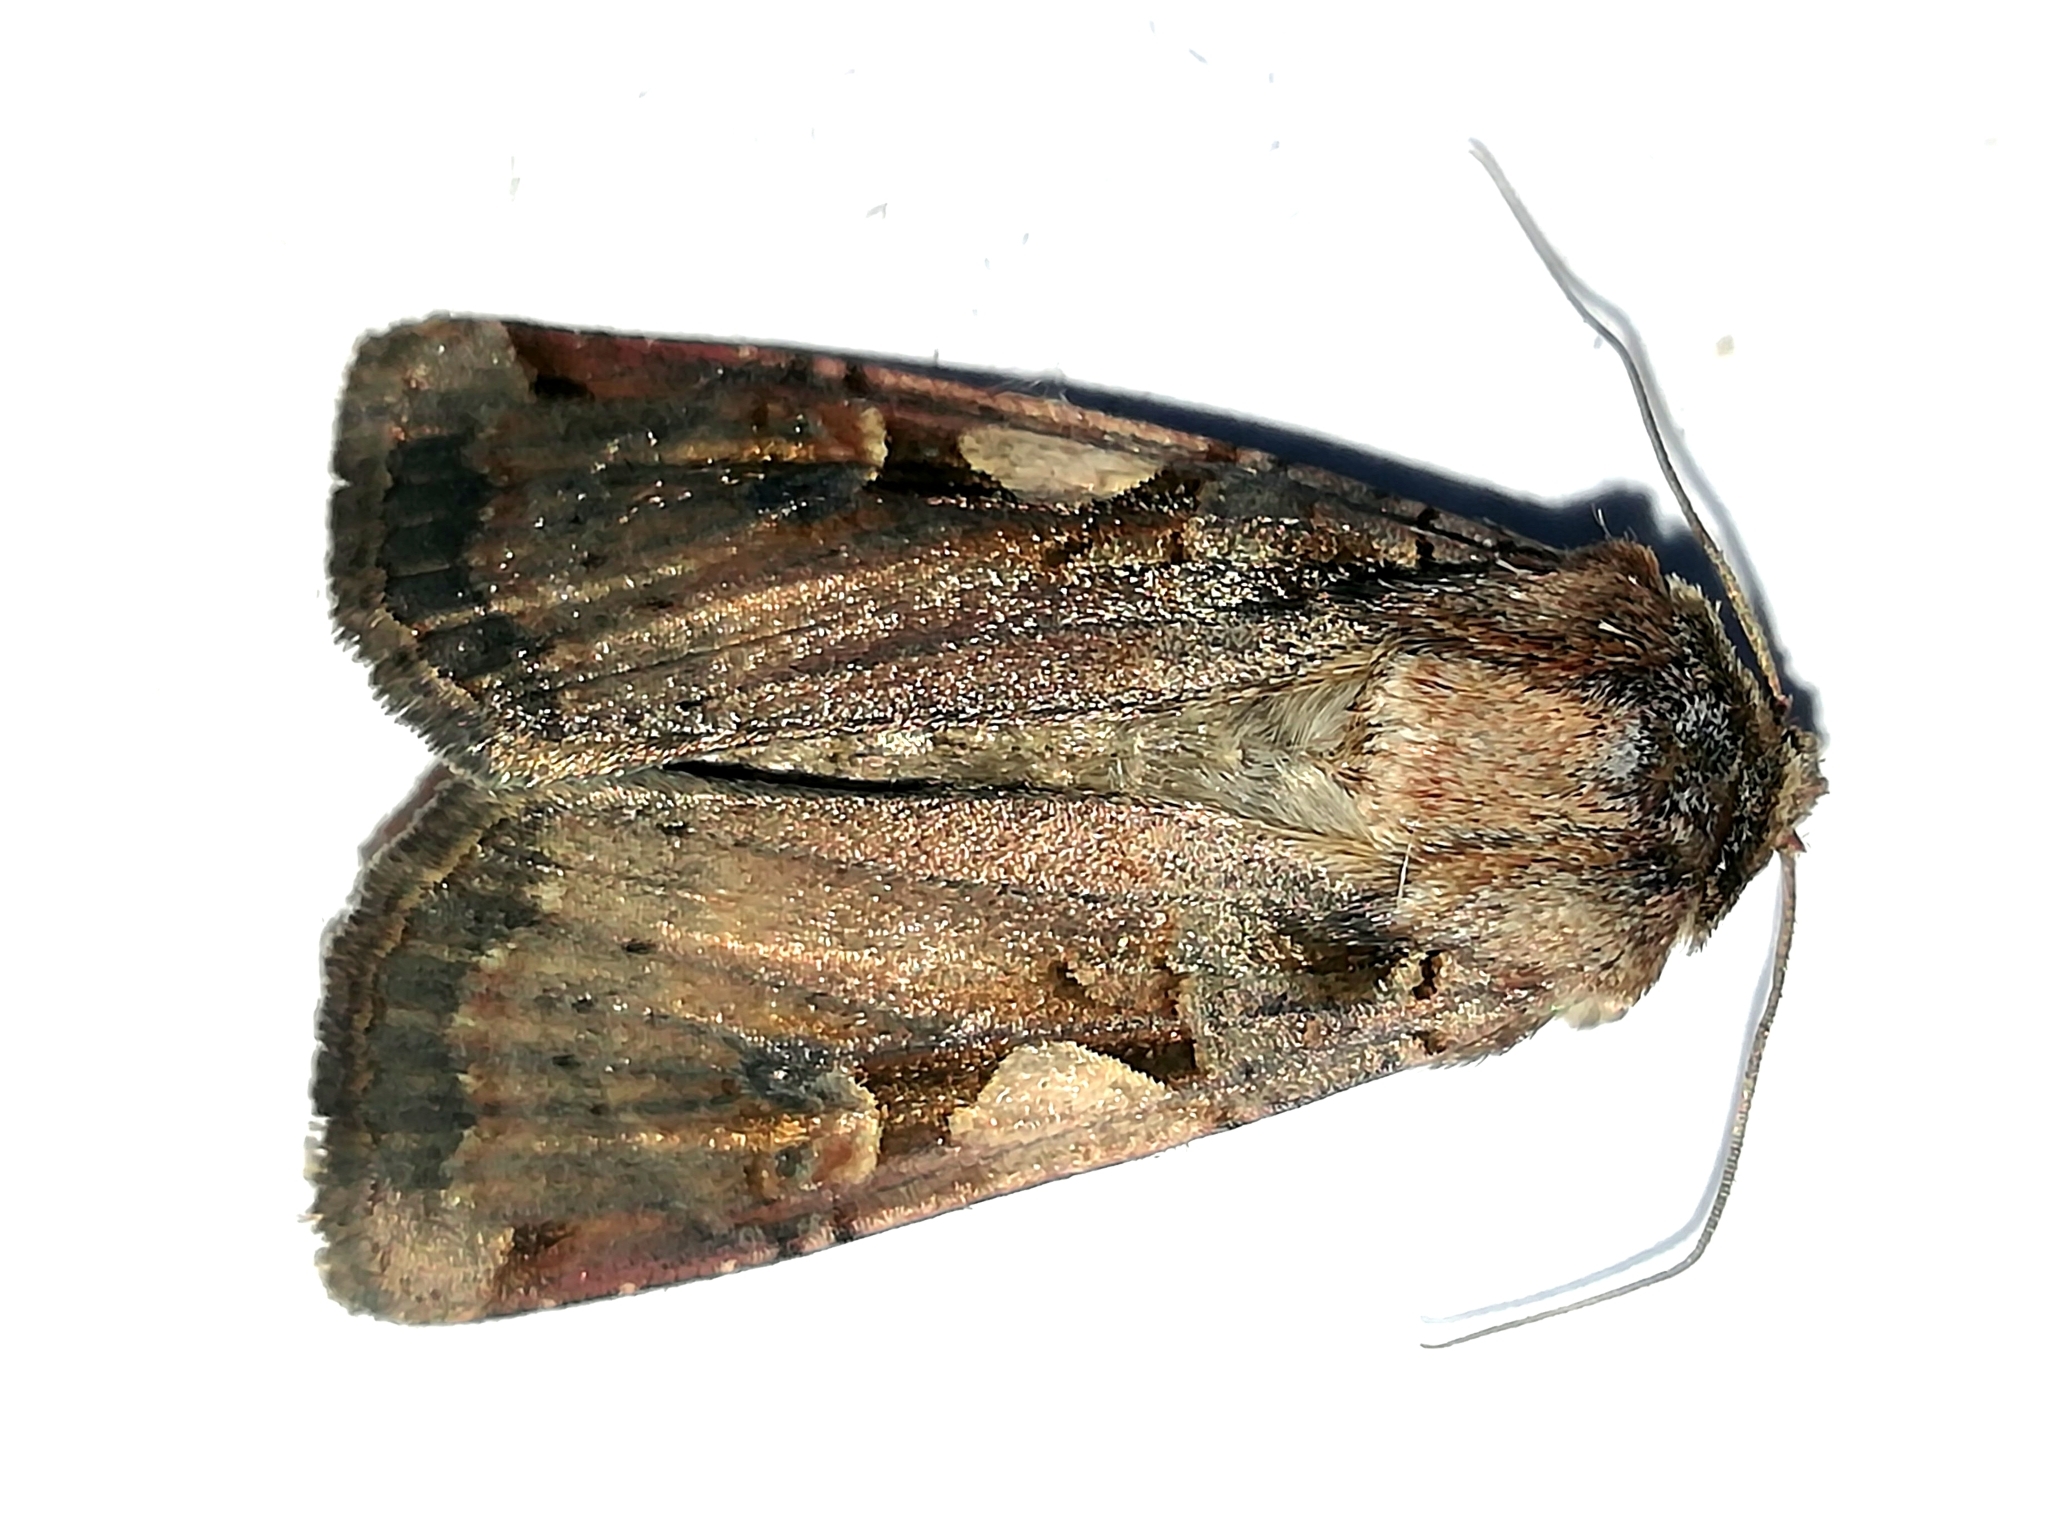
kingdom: Animalia
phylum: Arthropoda
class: Insecta
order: Lepidoptera
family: Noctuidae
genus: Xestia
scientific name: Xestia c-nigrum
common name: Setaceous hebrew character
